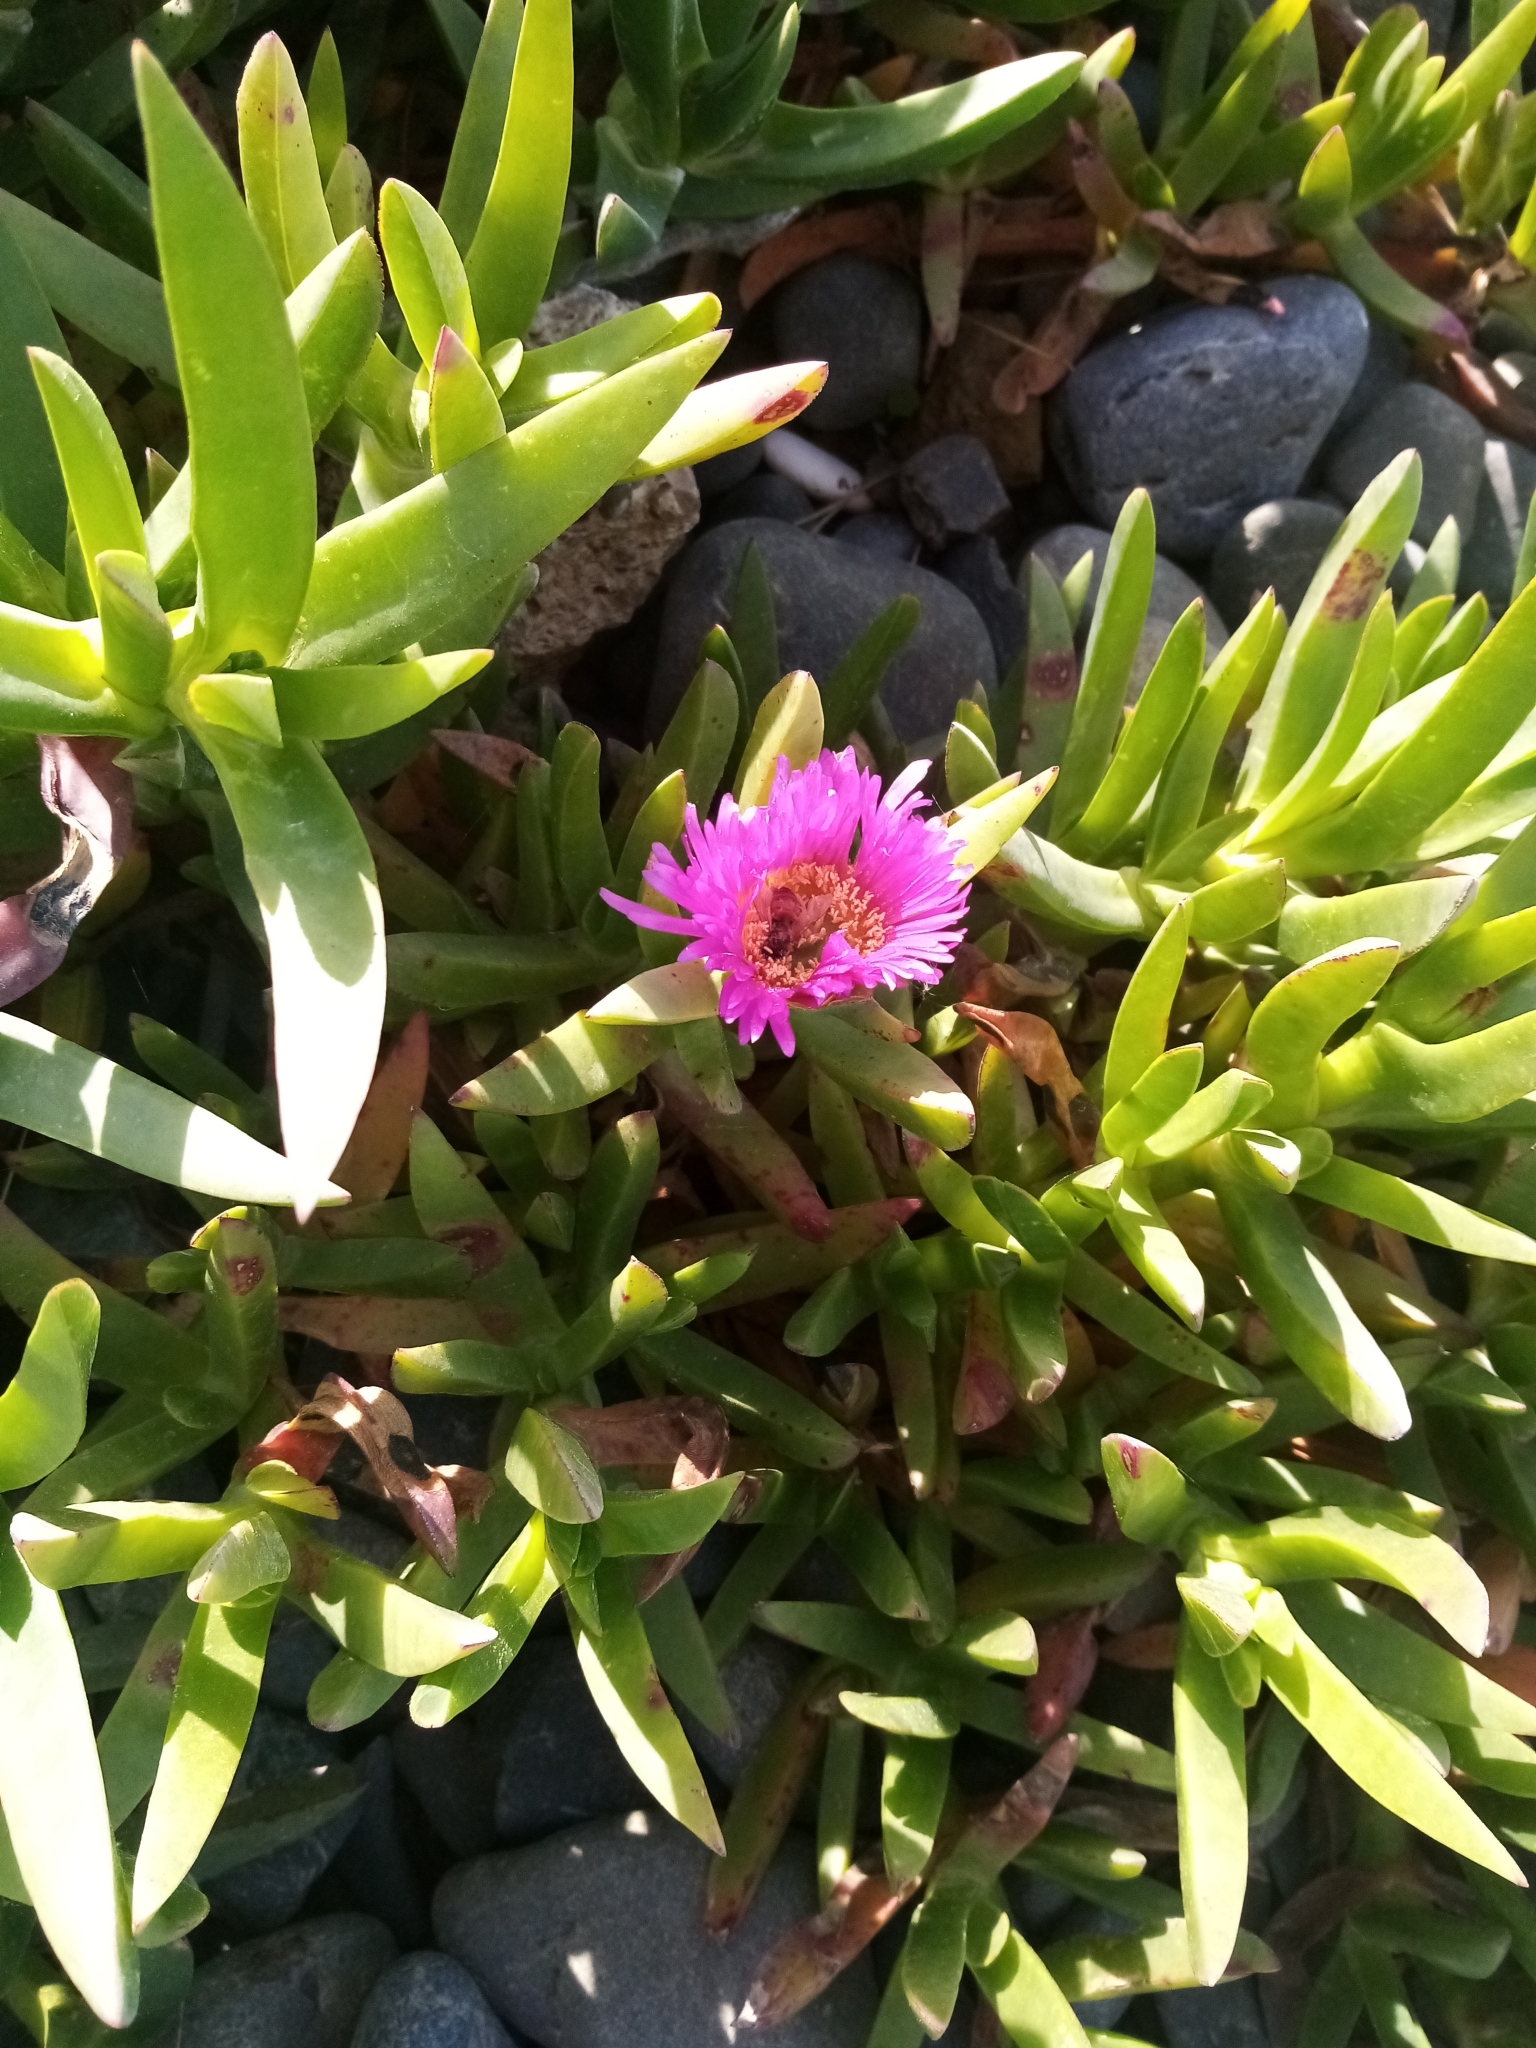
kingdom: Plantae
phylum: Tracheophyta
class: Magnoliopsida
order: Caryophyllales
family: Aizoaceae
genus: Carpobrotus
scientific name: Carpobrotus chilensis
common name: Sea fig
